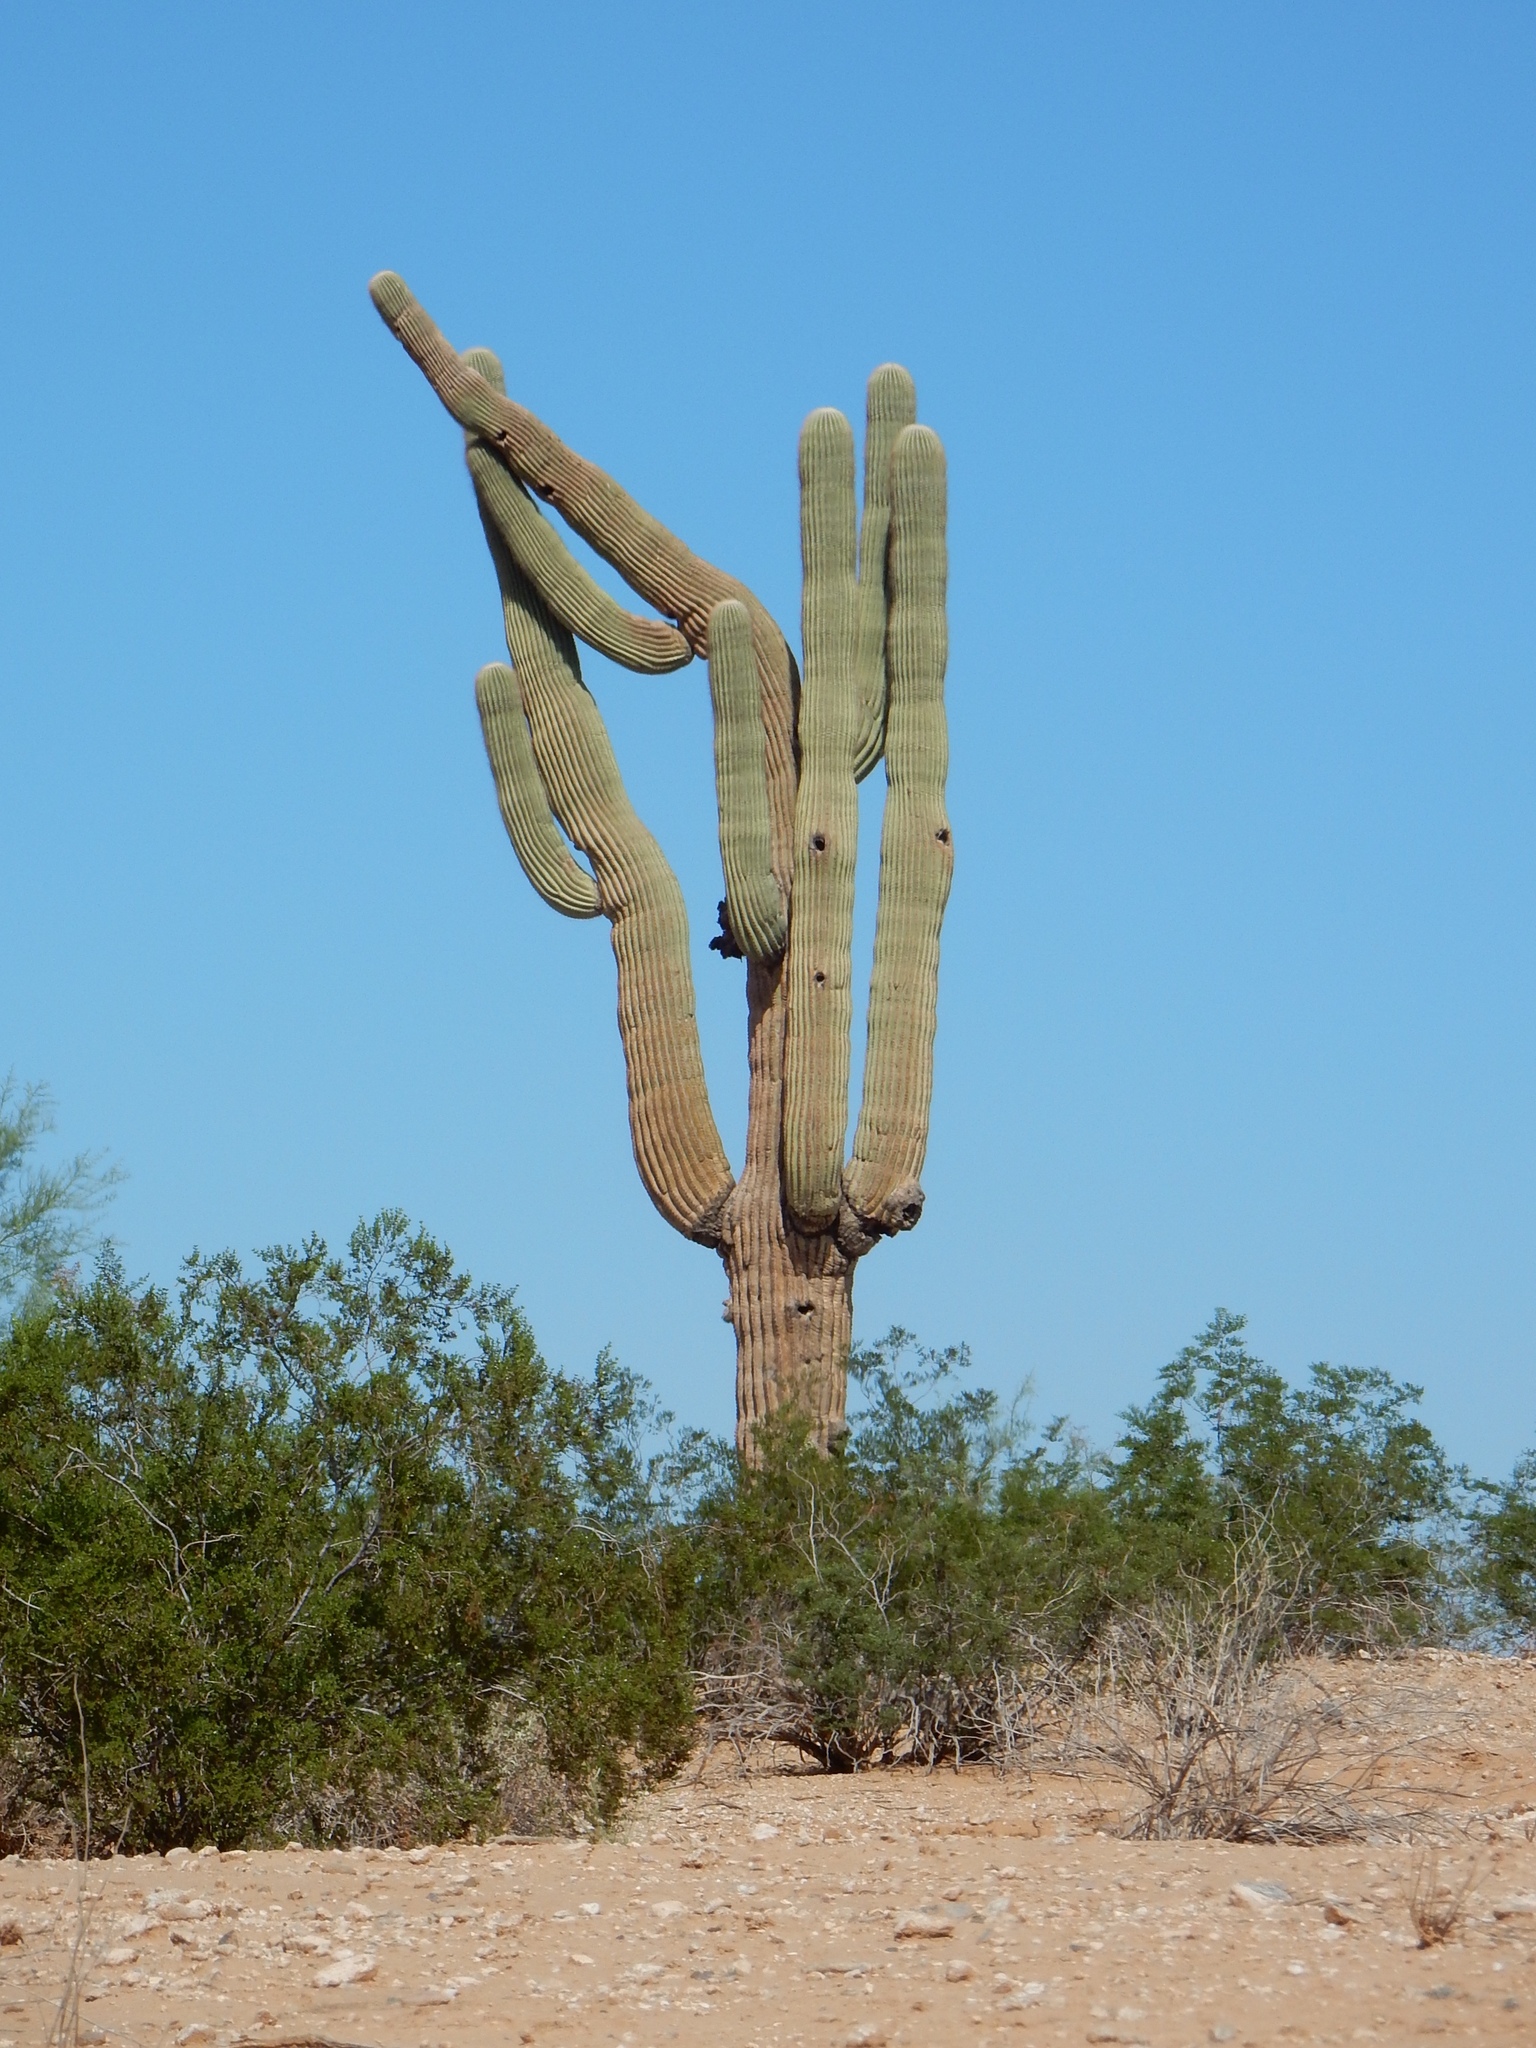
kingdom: Plantae
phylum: Tracheophyta
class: Magnoliopsida
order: Caryophyllales
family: Cactaceae
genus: Carnegiea
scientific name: Carnegiea gigantea
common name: Saguaro
